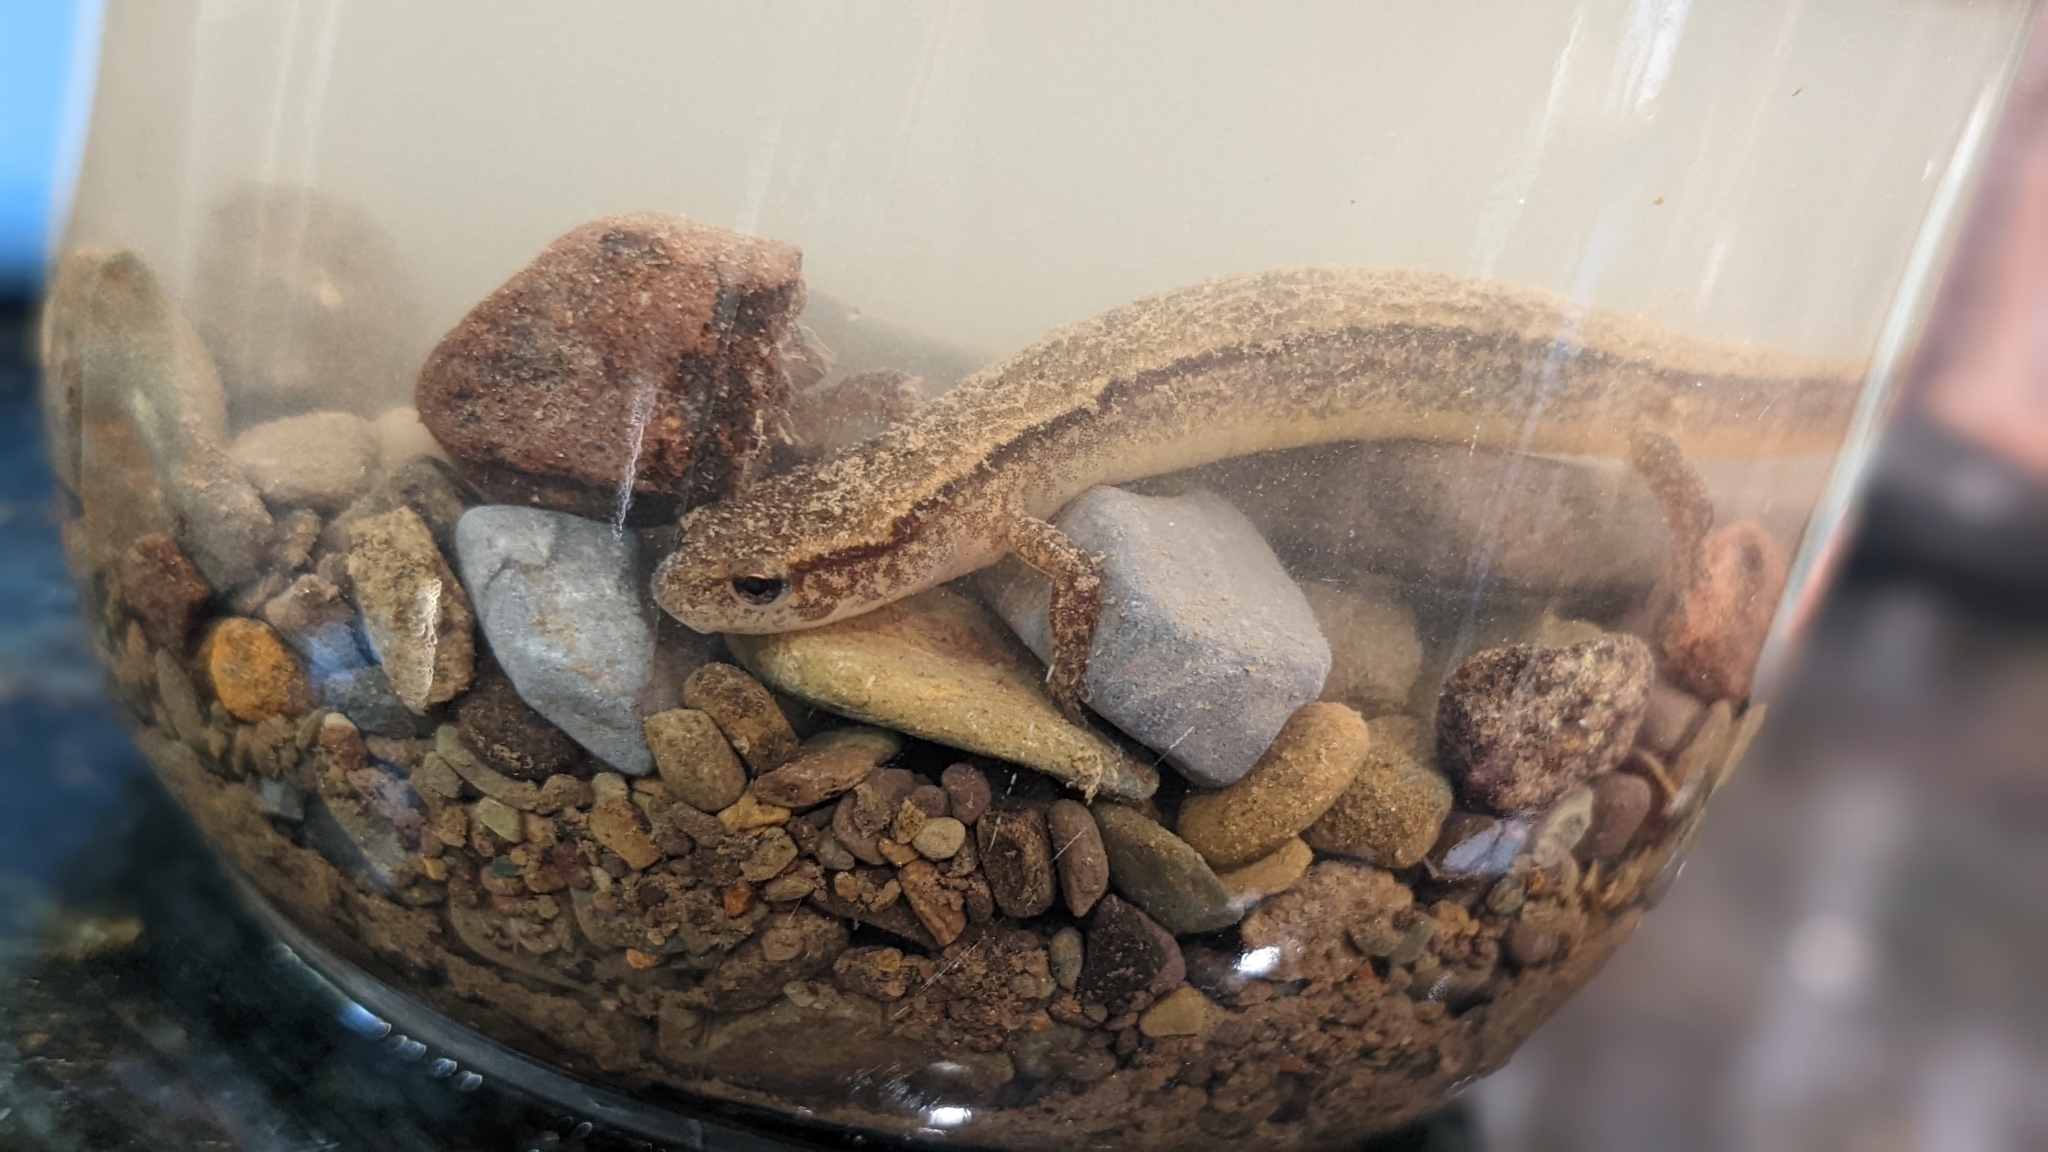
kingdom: Animalia
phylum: Chordata
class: Amphibia
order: Caudata
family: Plethodontidae
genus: Eurycea
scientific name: Eurycea bislineata
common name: Northern two-lined salamander
